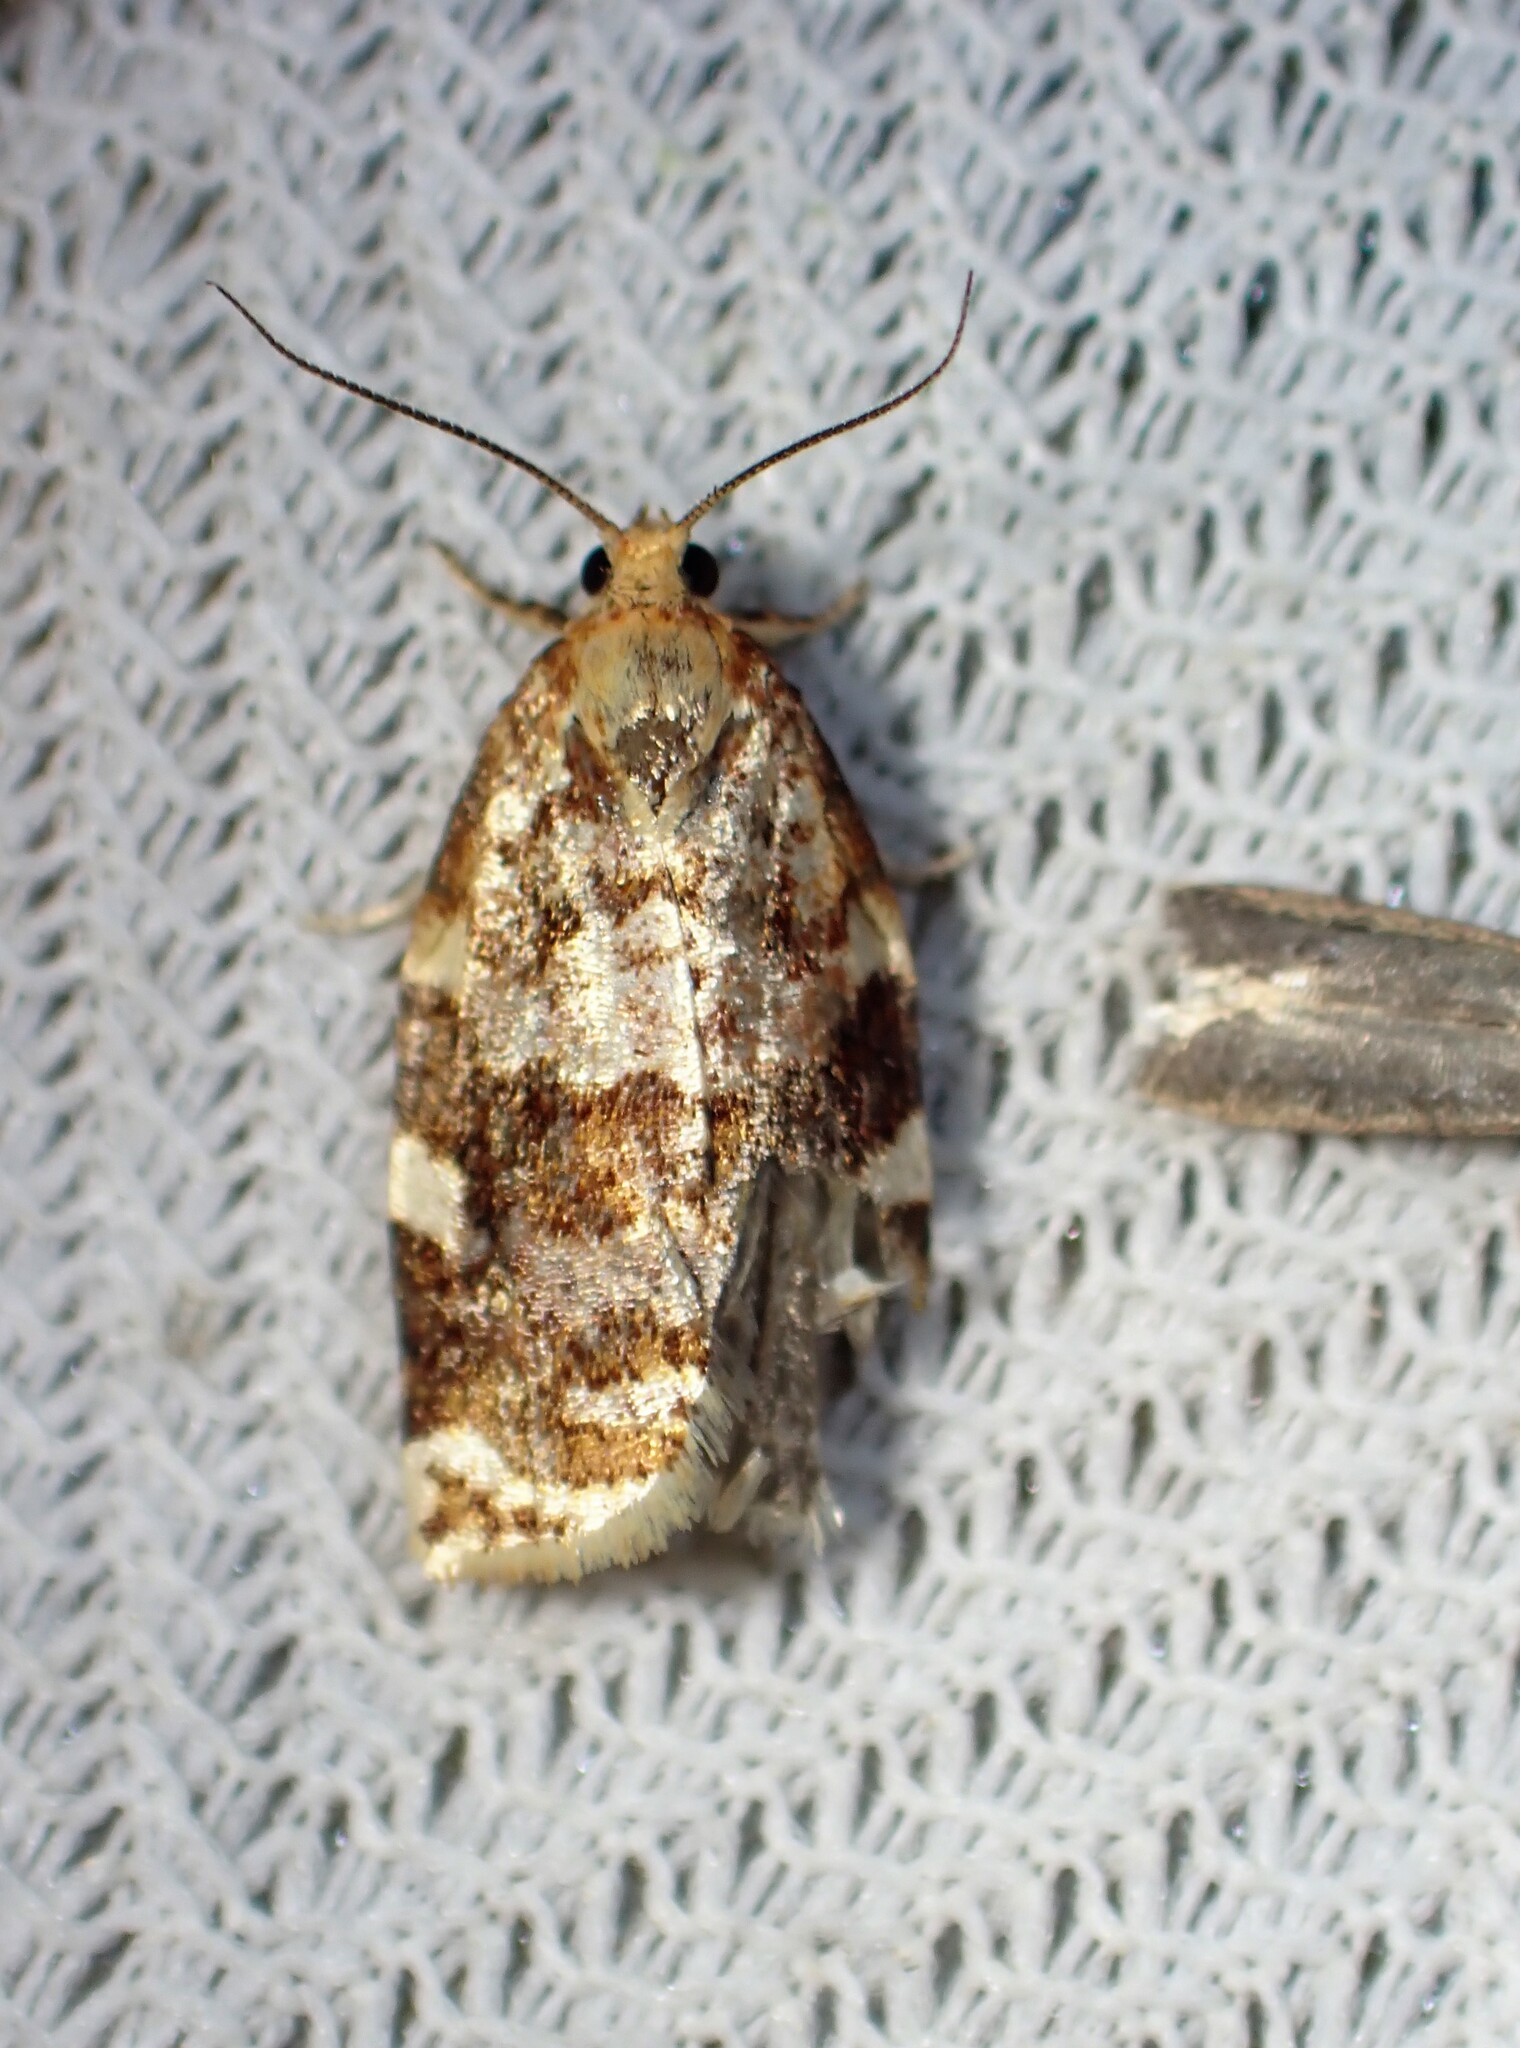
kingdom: Animalia
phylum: Arthropoda
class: Insecta
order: Lepidoptera
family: Tortricidae
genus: Archips
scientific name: Archips argyrospila
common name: Fruit-tree leafroller moth
